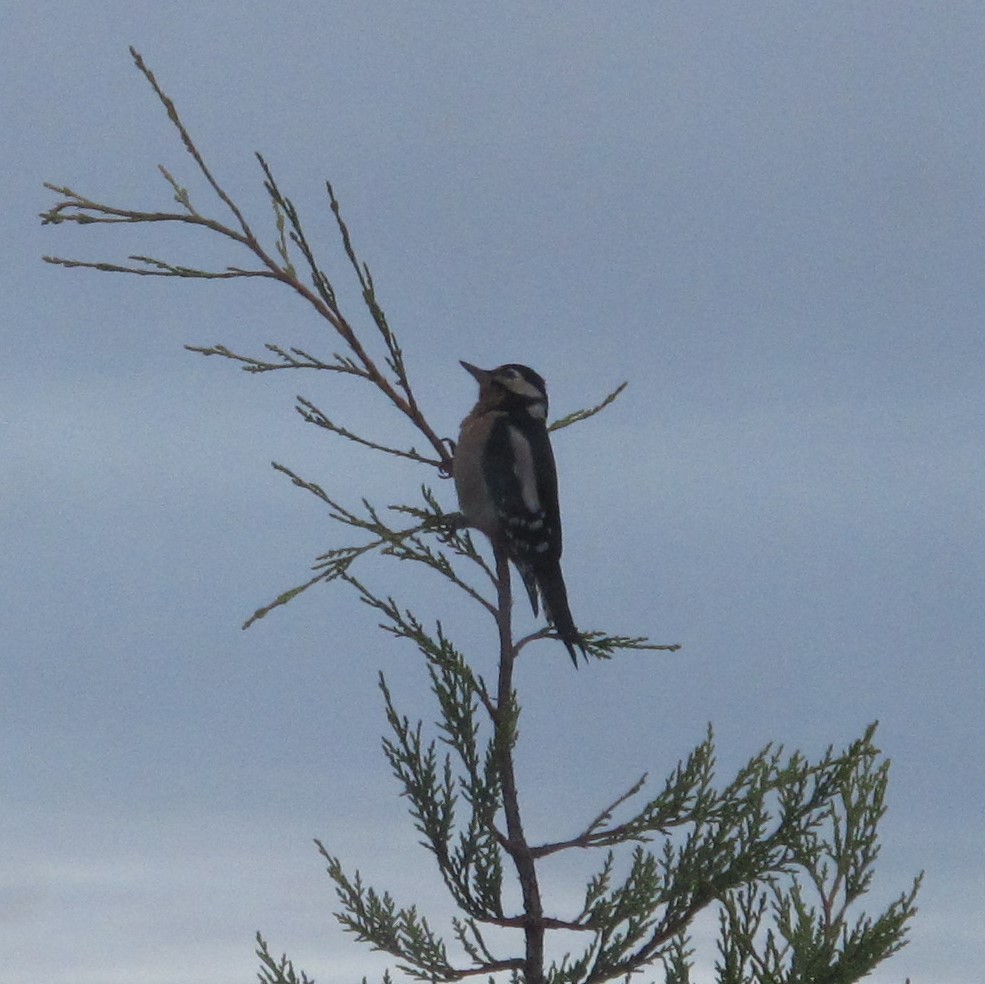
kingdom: Animalia
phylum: Chordata
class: Aves
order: Piciformes
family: Picidae
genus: Dendrocopos
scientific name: Dendrocopos major
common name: Great spotted woodpecker
